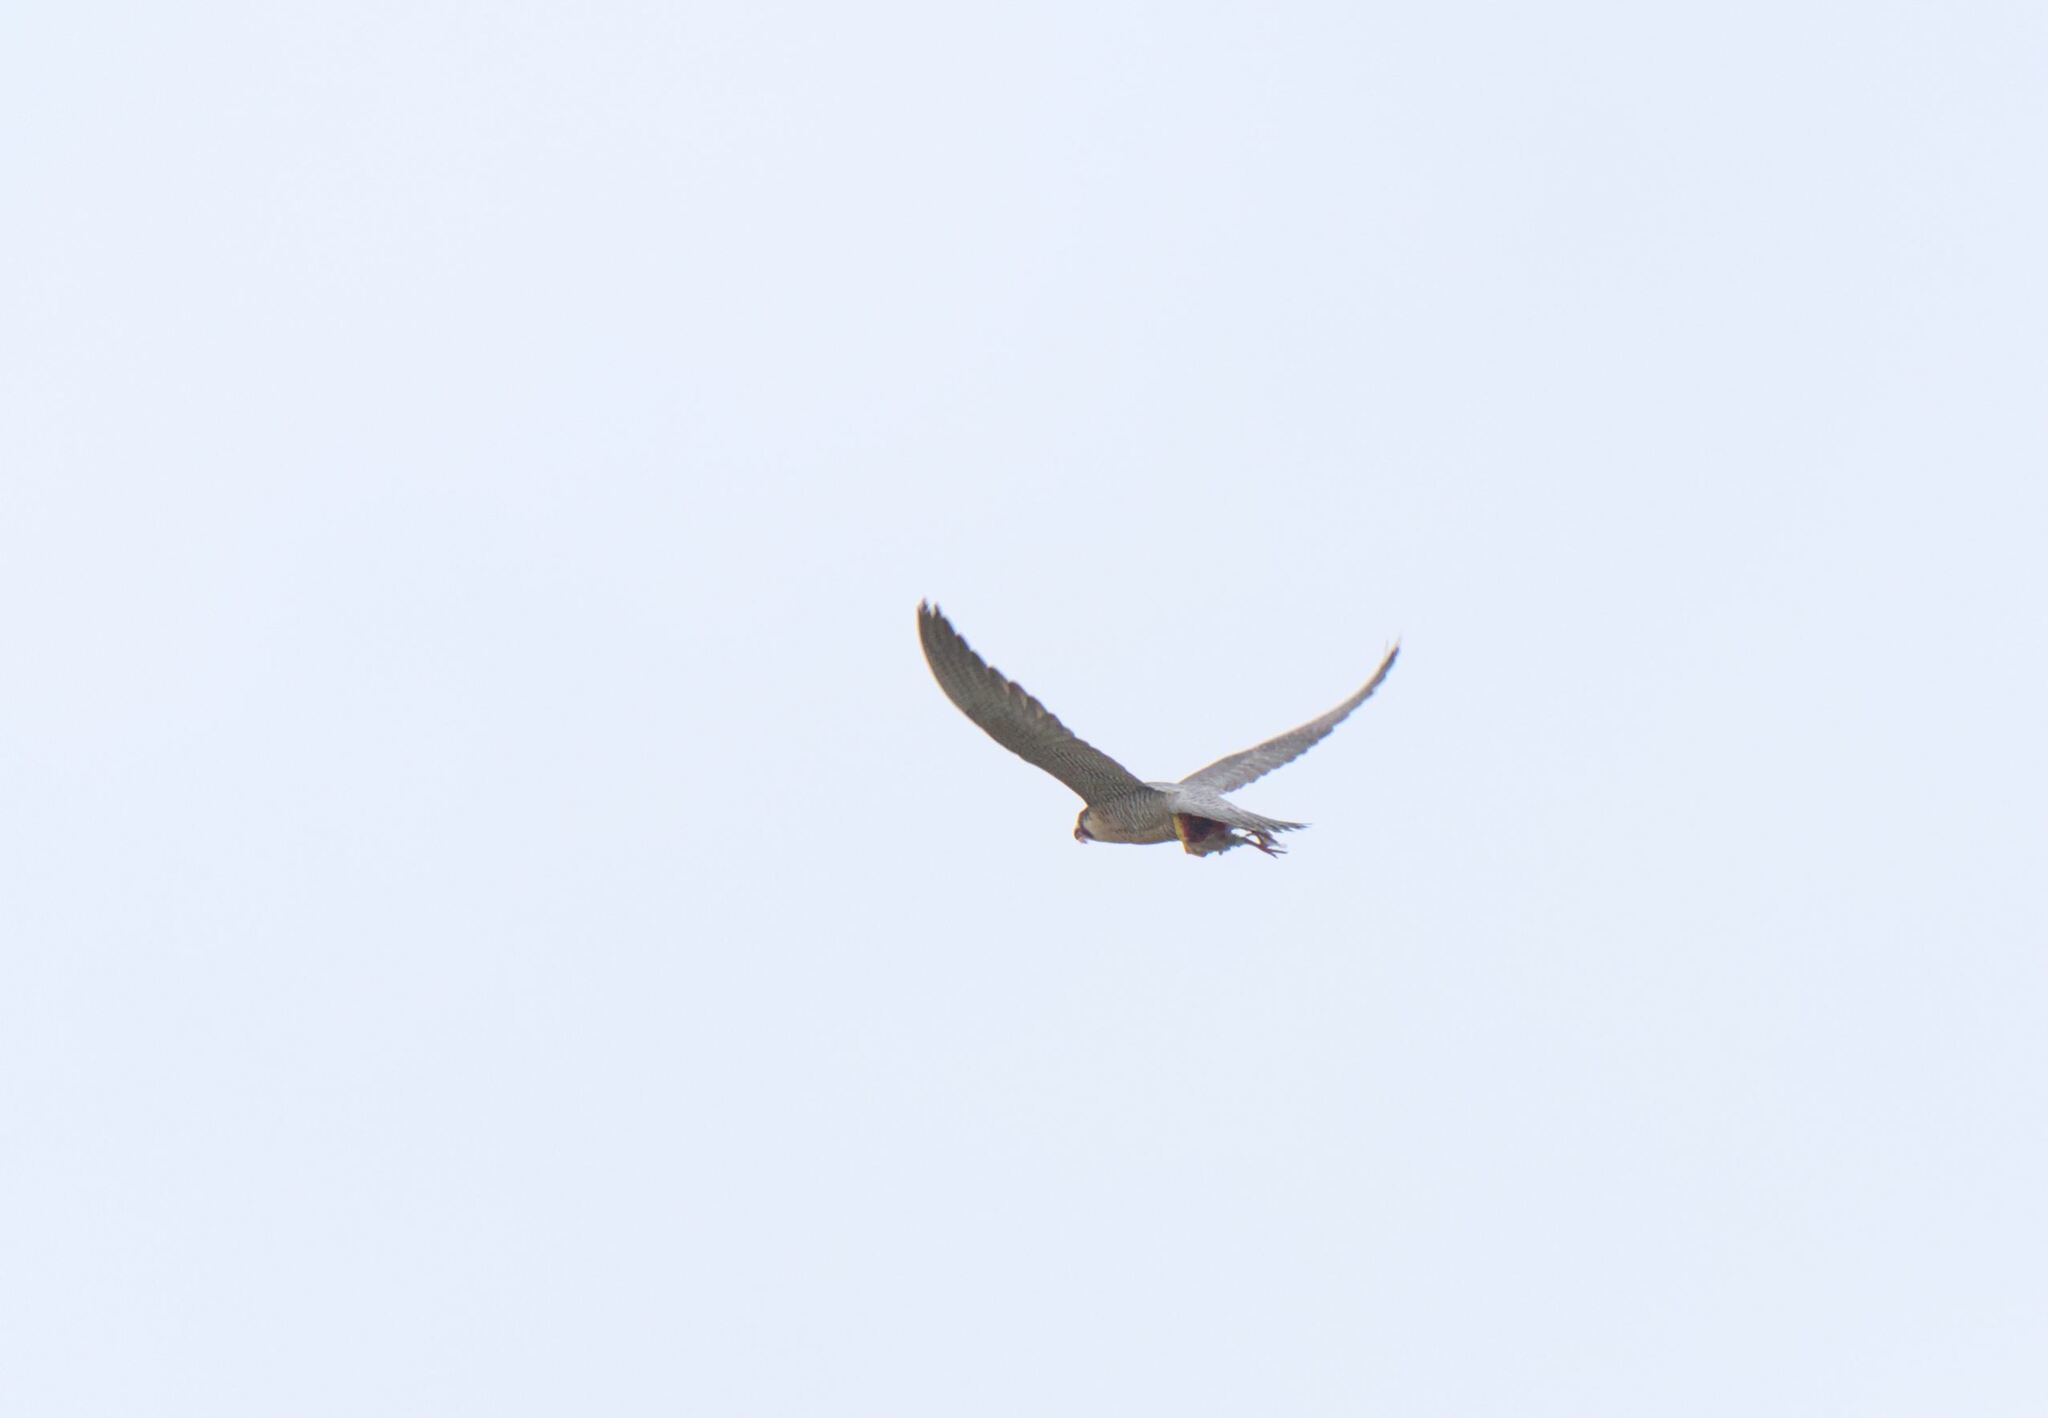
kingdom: Animalia
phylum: Chordata
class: Aves
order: Falconiformes
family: Falconidae
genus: Falco
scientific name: Falco peregrinus
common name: Peregrine falcon
